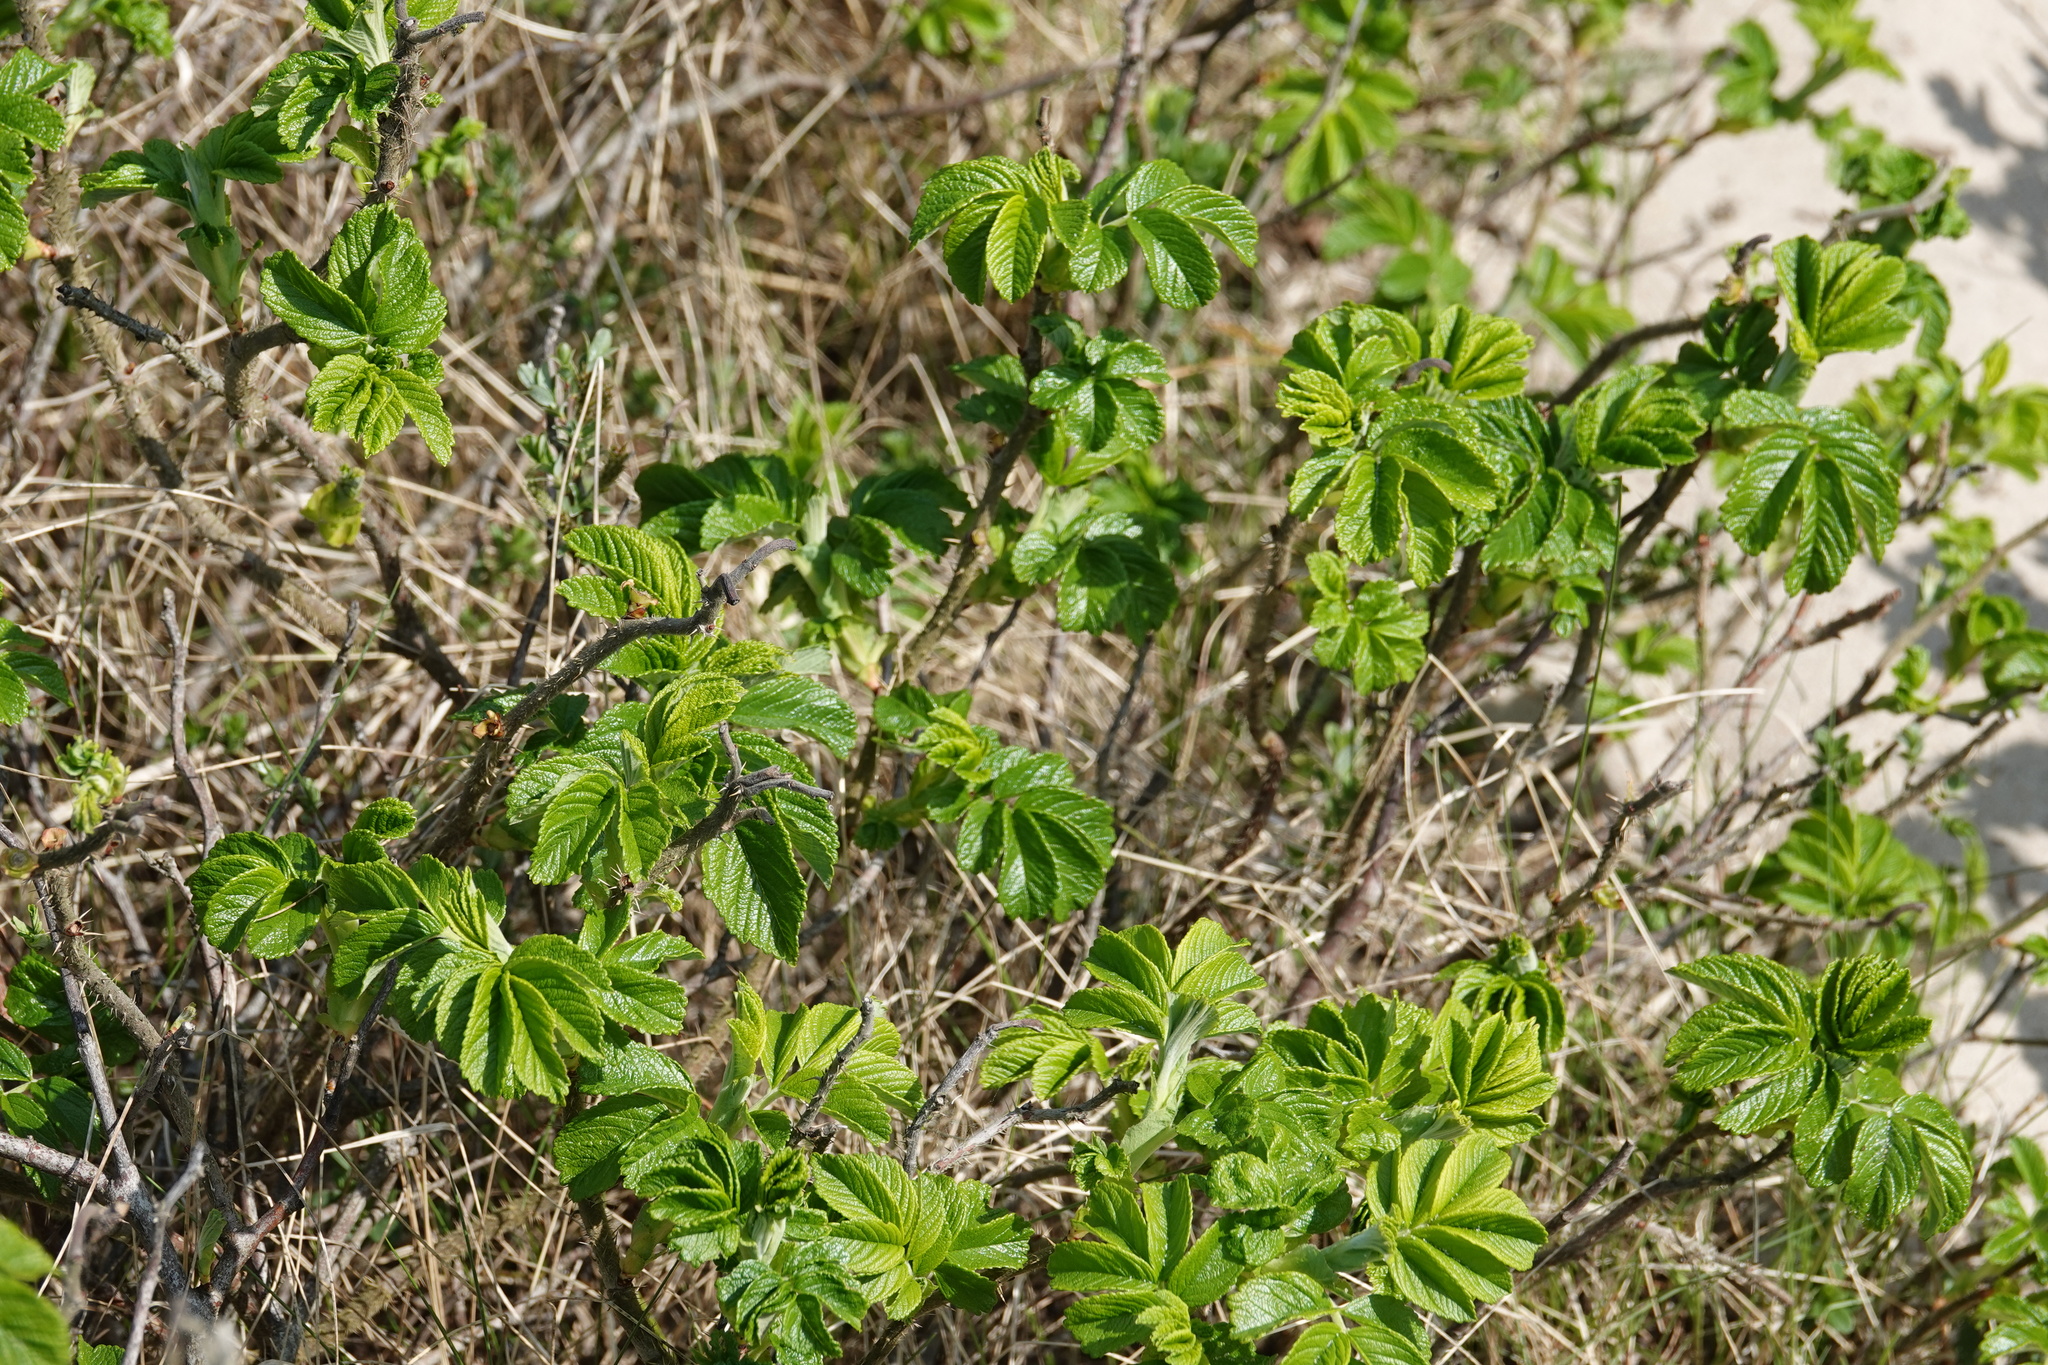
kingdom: Plantae
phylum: Tracheophyta
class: Magnoliopsida
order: Rosales
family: Rosaceae
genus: Rosa
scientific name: Rosa rugosa
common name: Japanese rose
